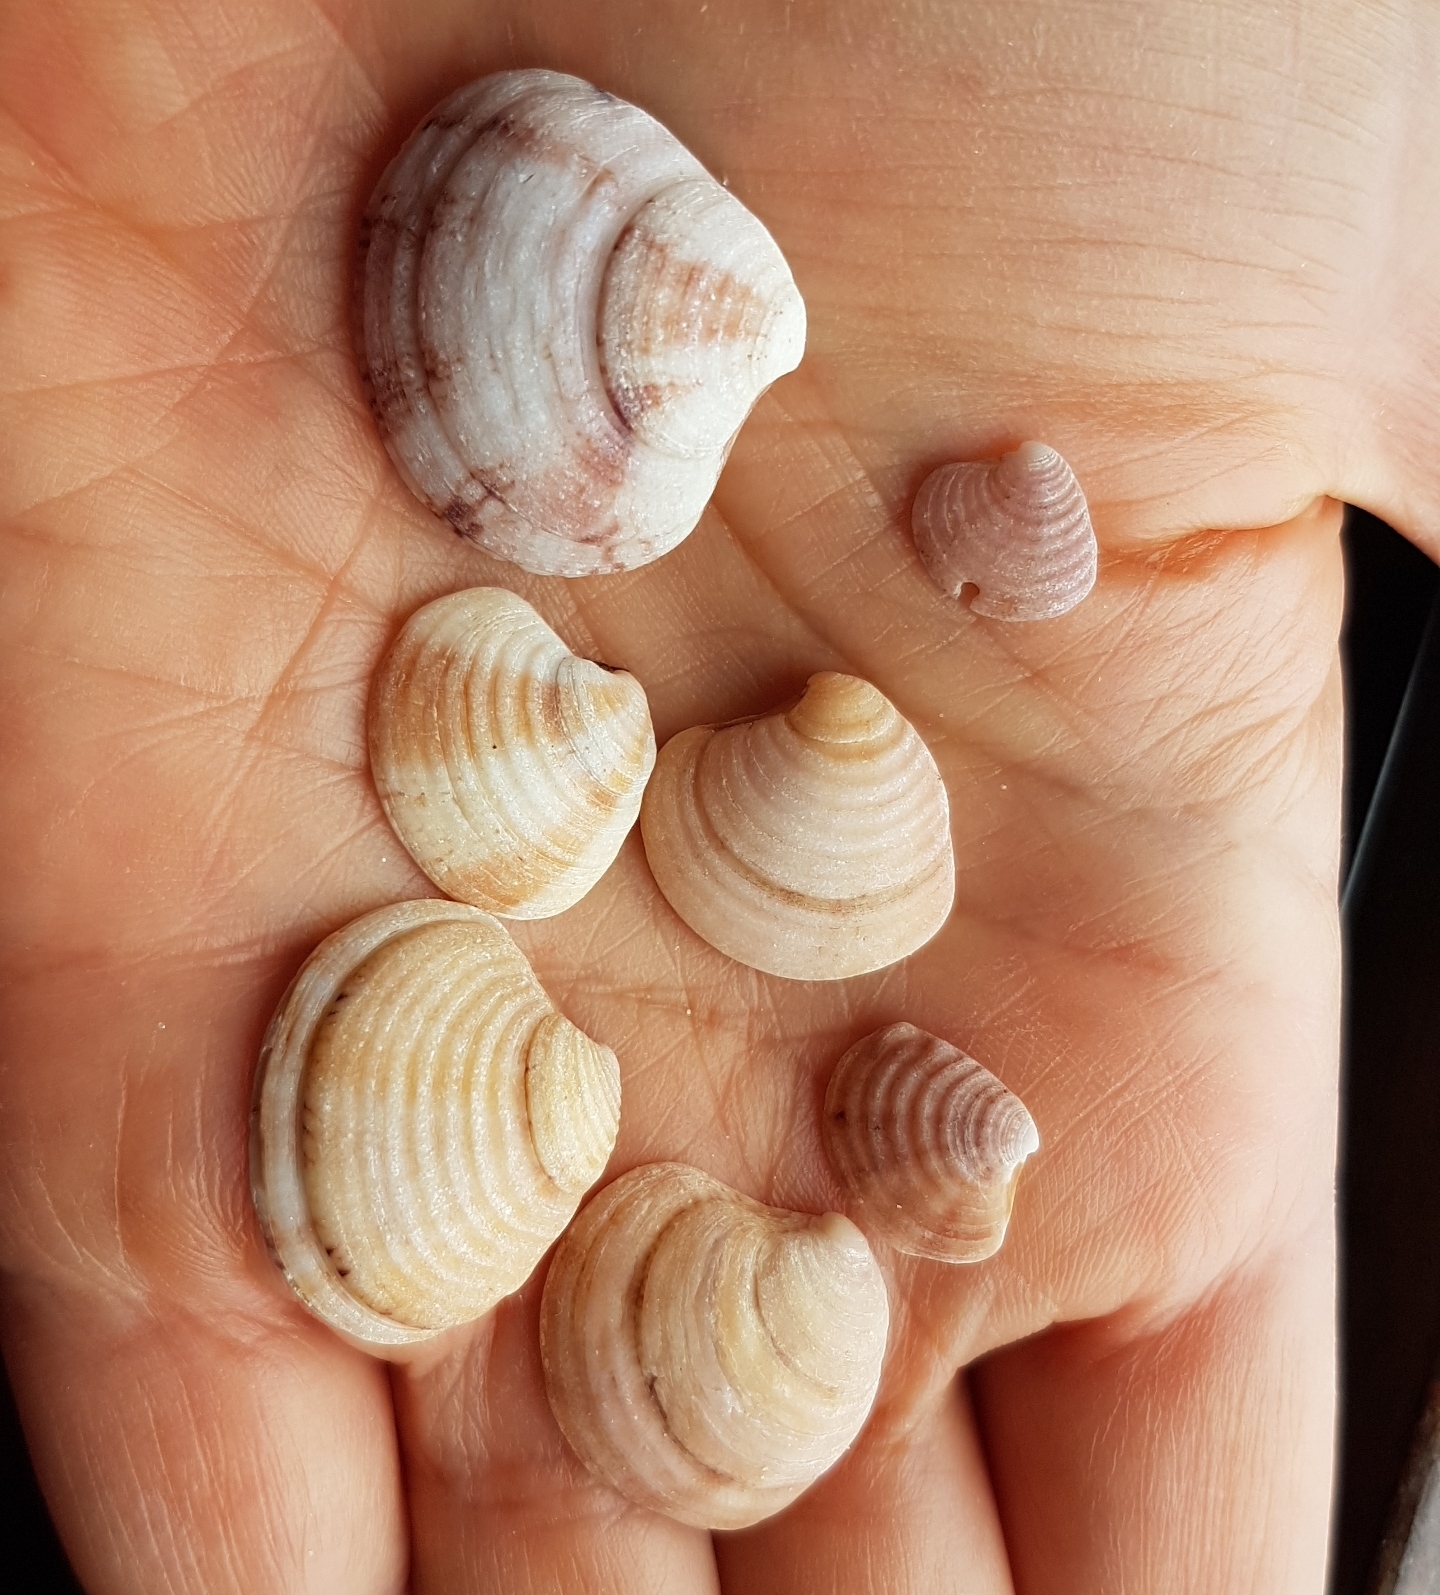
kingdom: Animalia
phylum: Mollusca
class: Bivalvia
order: Venerida
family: Veneridae
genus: Clausinella
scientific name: Clausinella fasciata
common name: Banded venus
